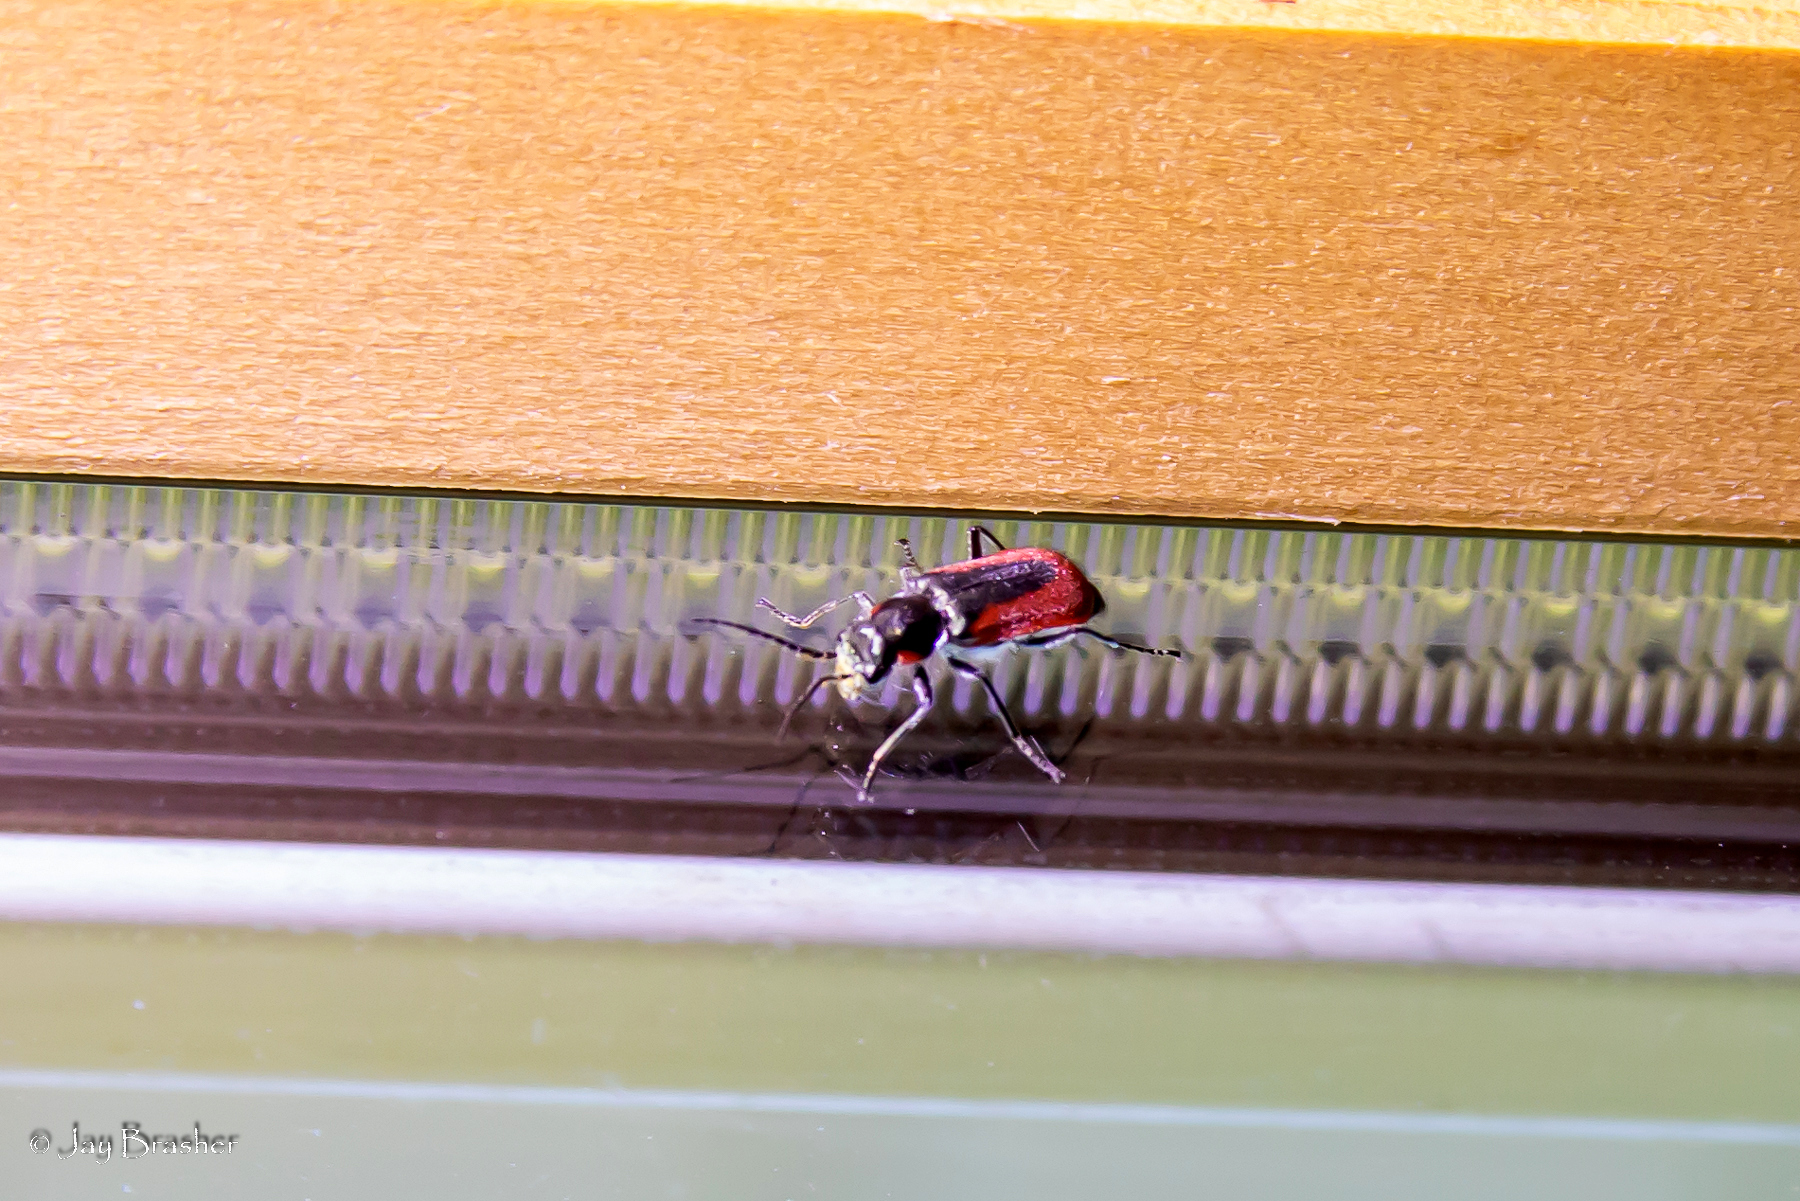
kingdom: Animalia
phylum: Arthropoda
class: Insecta
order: Coleoptera
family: Melyridae
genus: Malachius
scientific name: Malachius aeneus
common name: Scarlet malachite beetle
